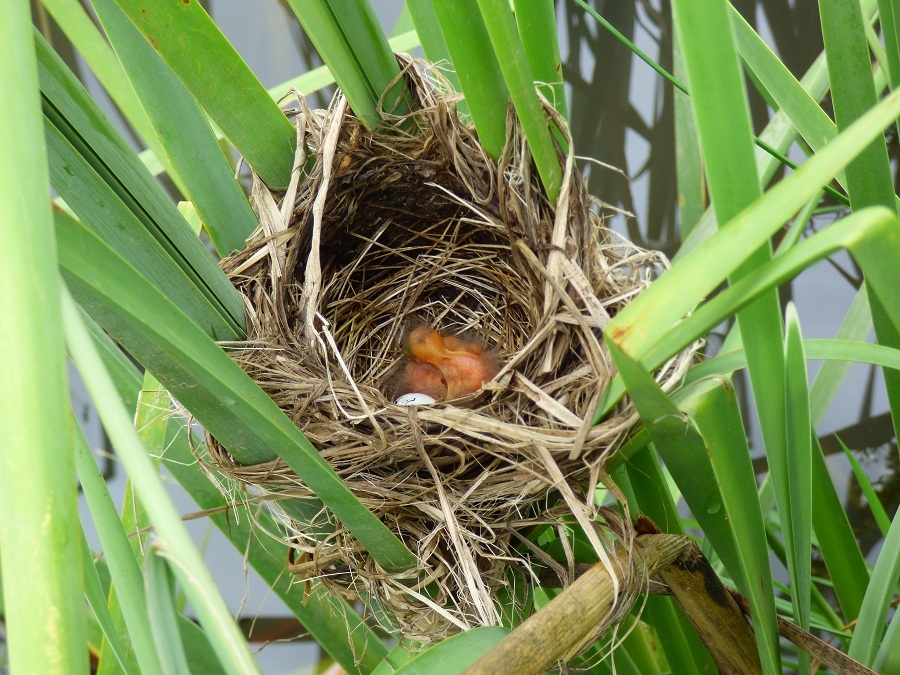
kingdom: Animalia
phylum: Chordata
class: Aves
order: Passeriformes
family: Icteridae
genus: Chrysomus
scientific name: Chrysomus ruficapillus
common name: Chestnut-capped blackbird
